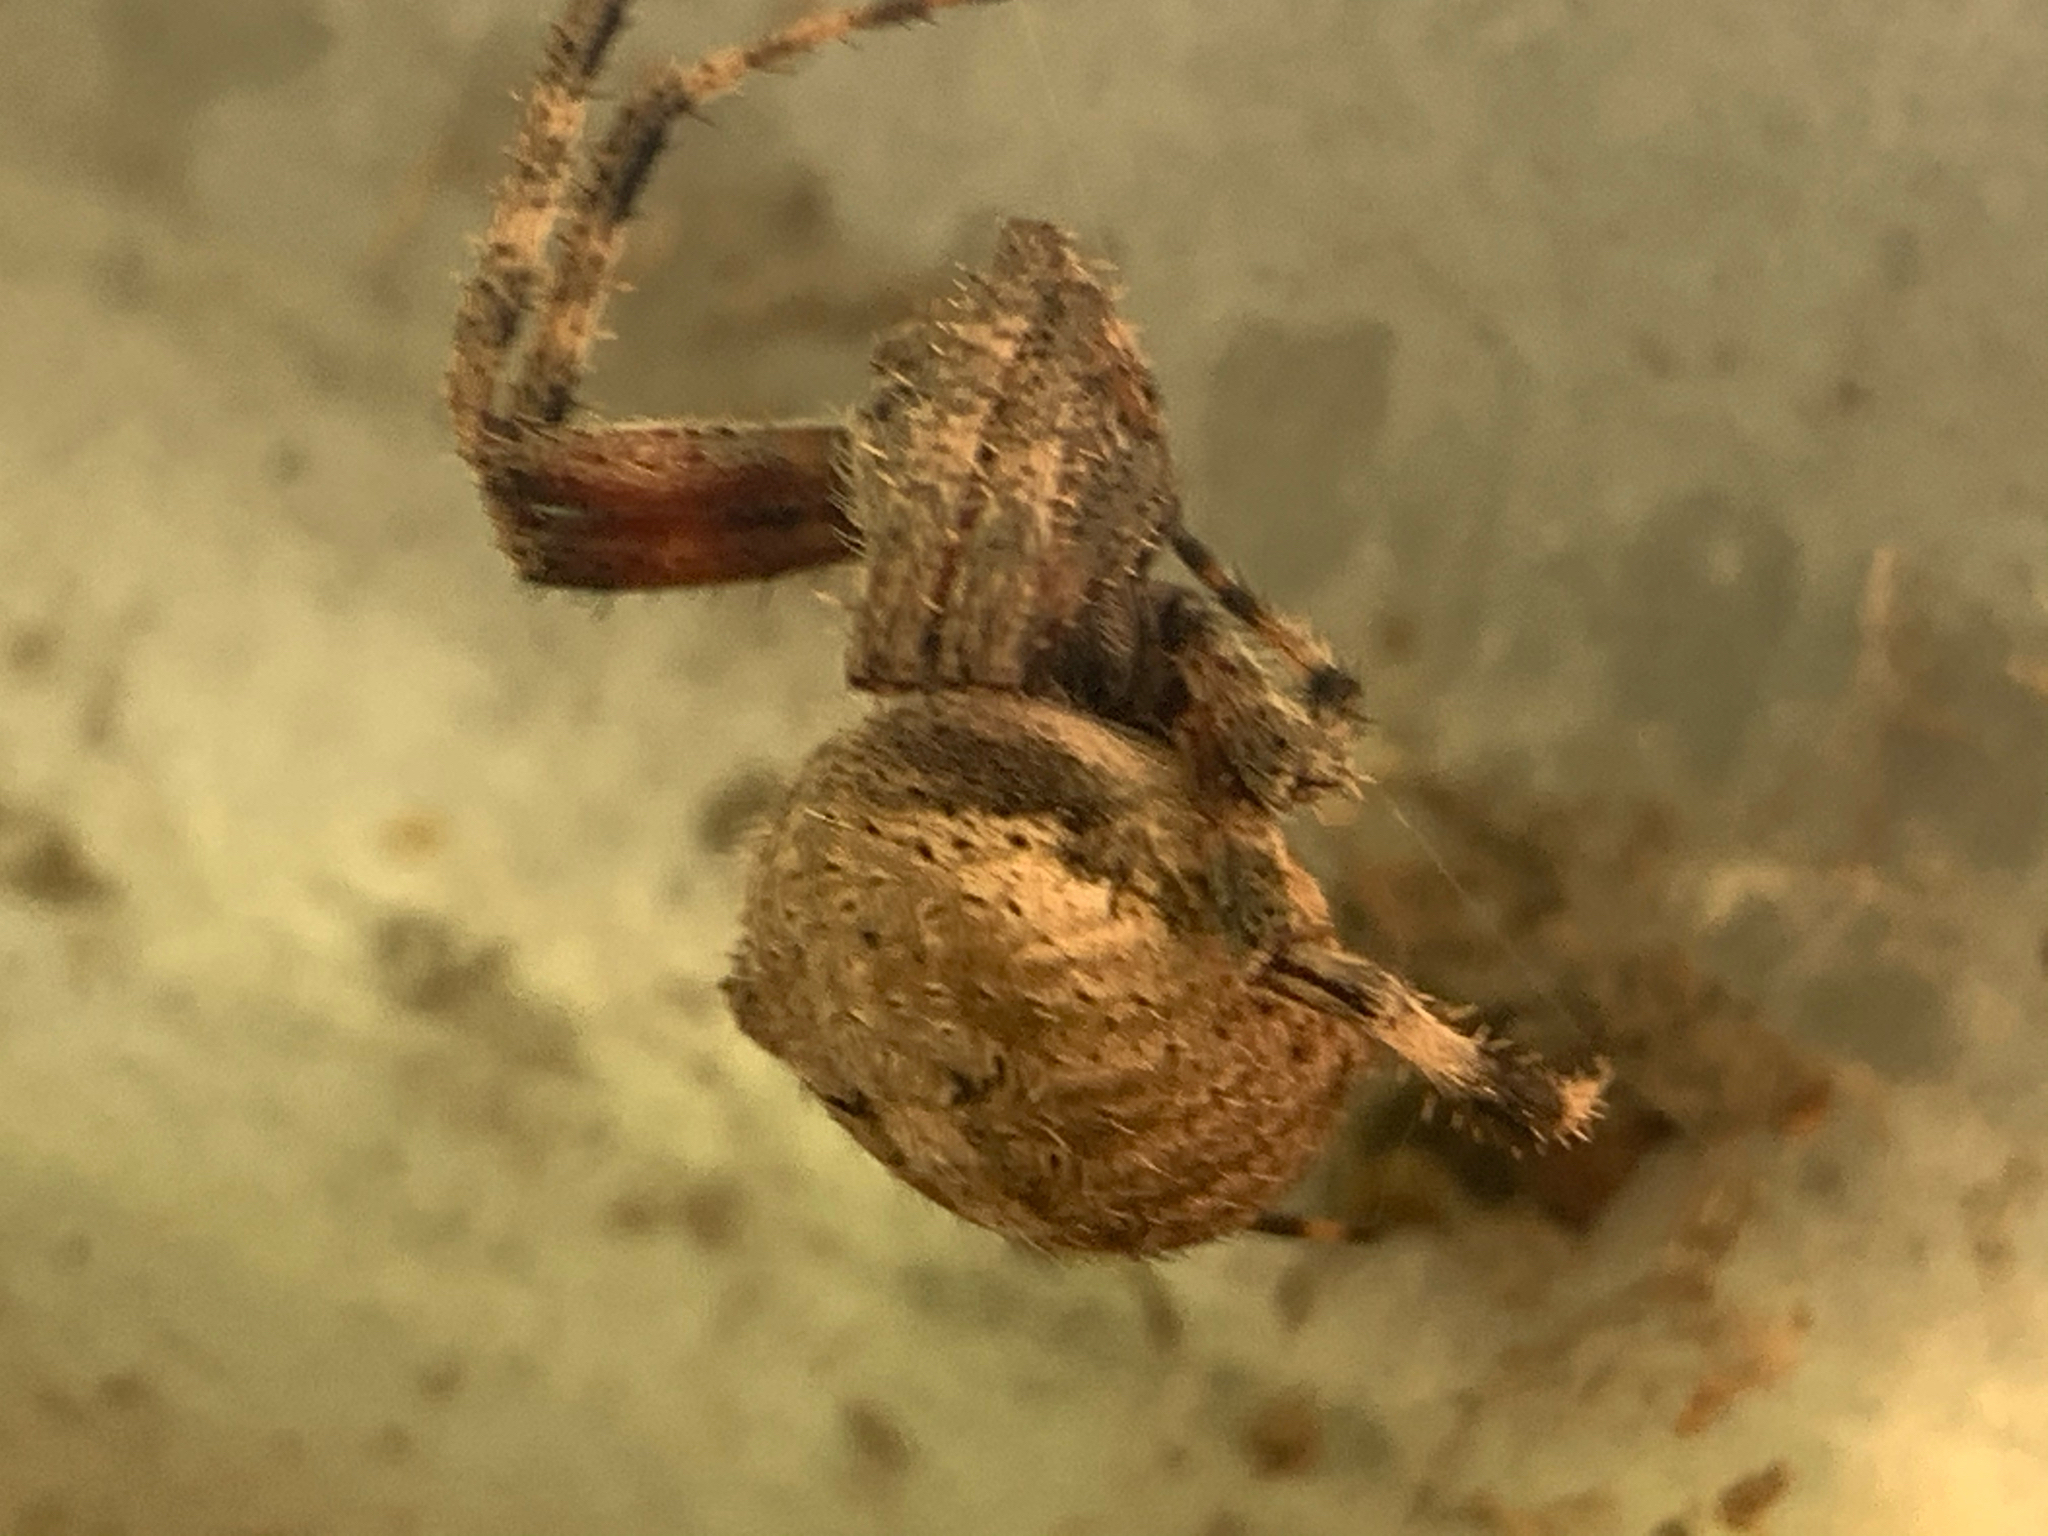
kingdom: Animalia
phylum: Arthropoda
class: Arachnida
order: Araneae
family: Araneidae
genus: Neoscona
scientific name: Neoscona crucifera
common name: Spotted orbweaver
